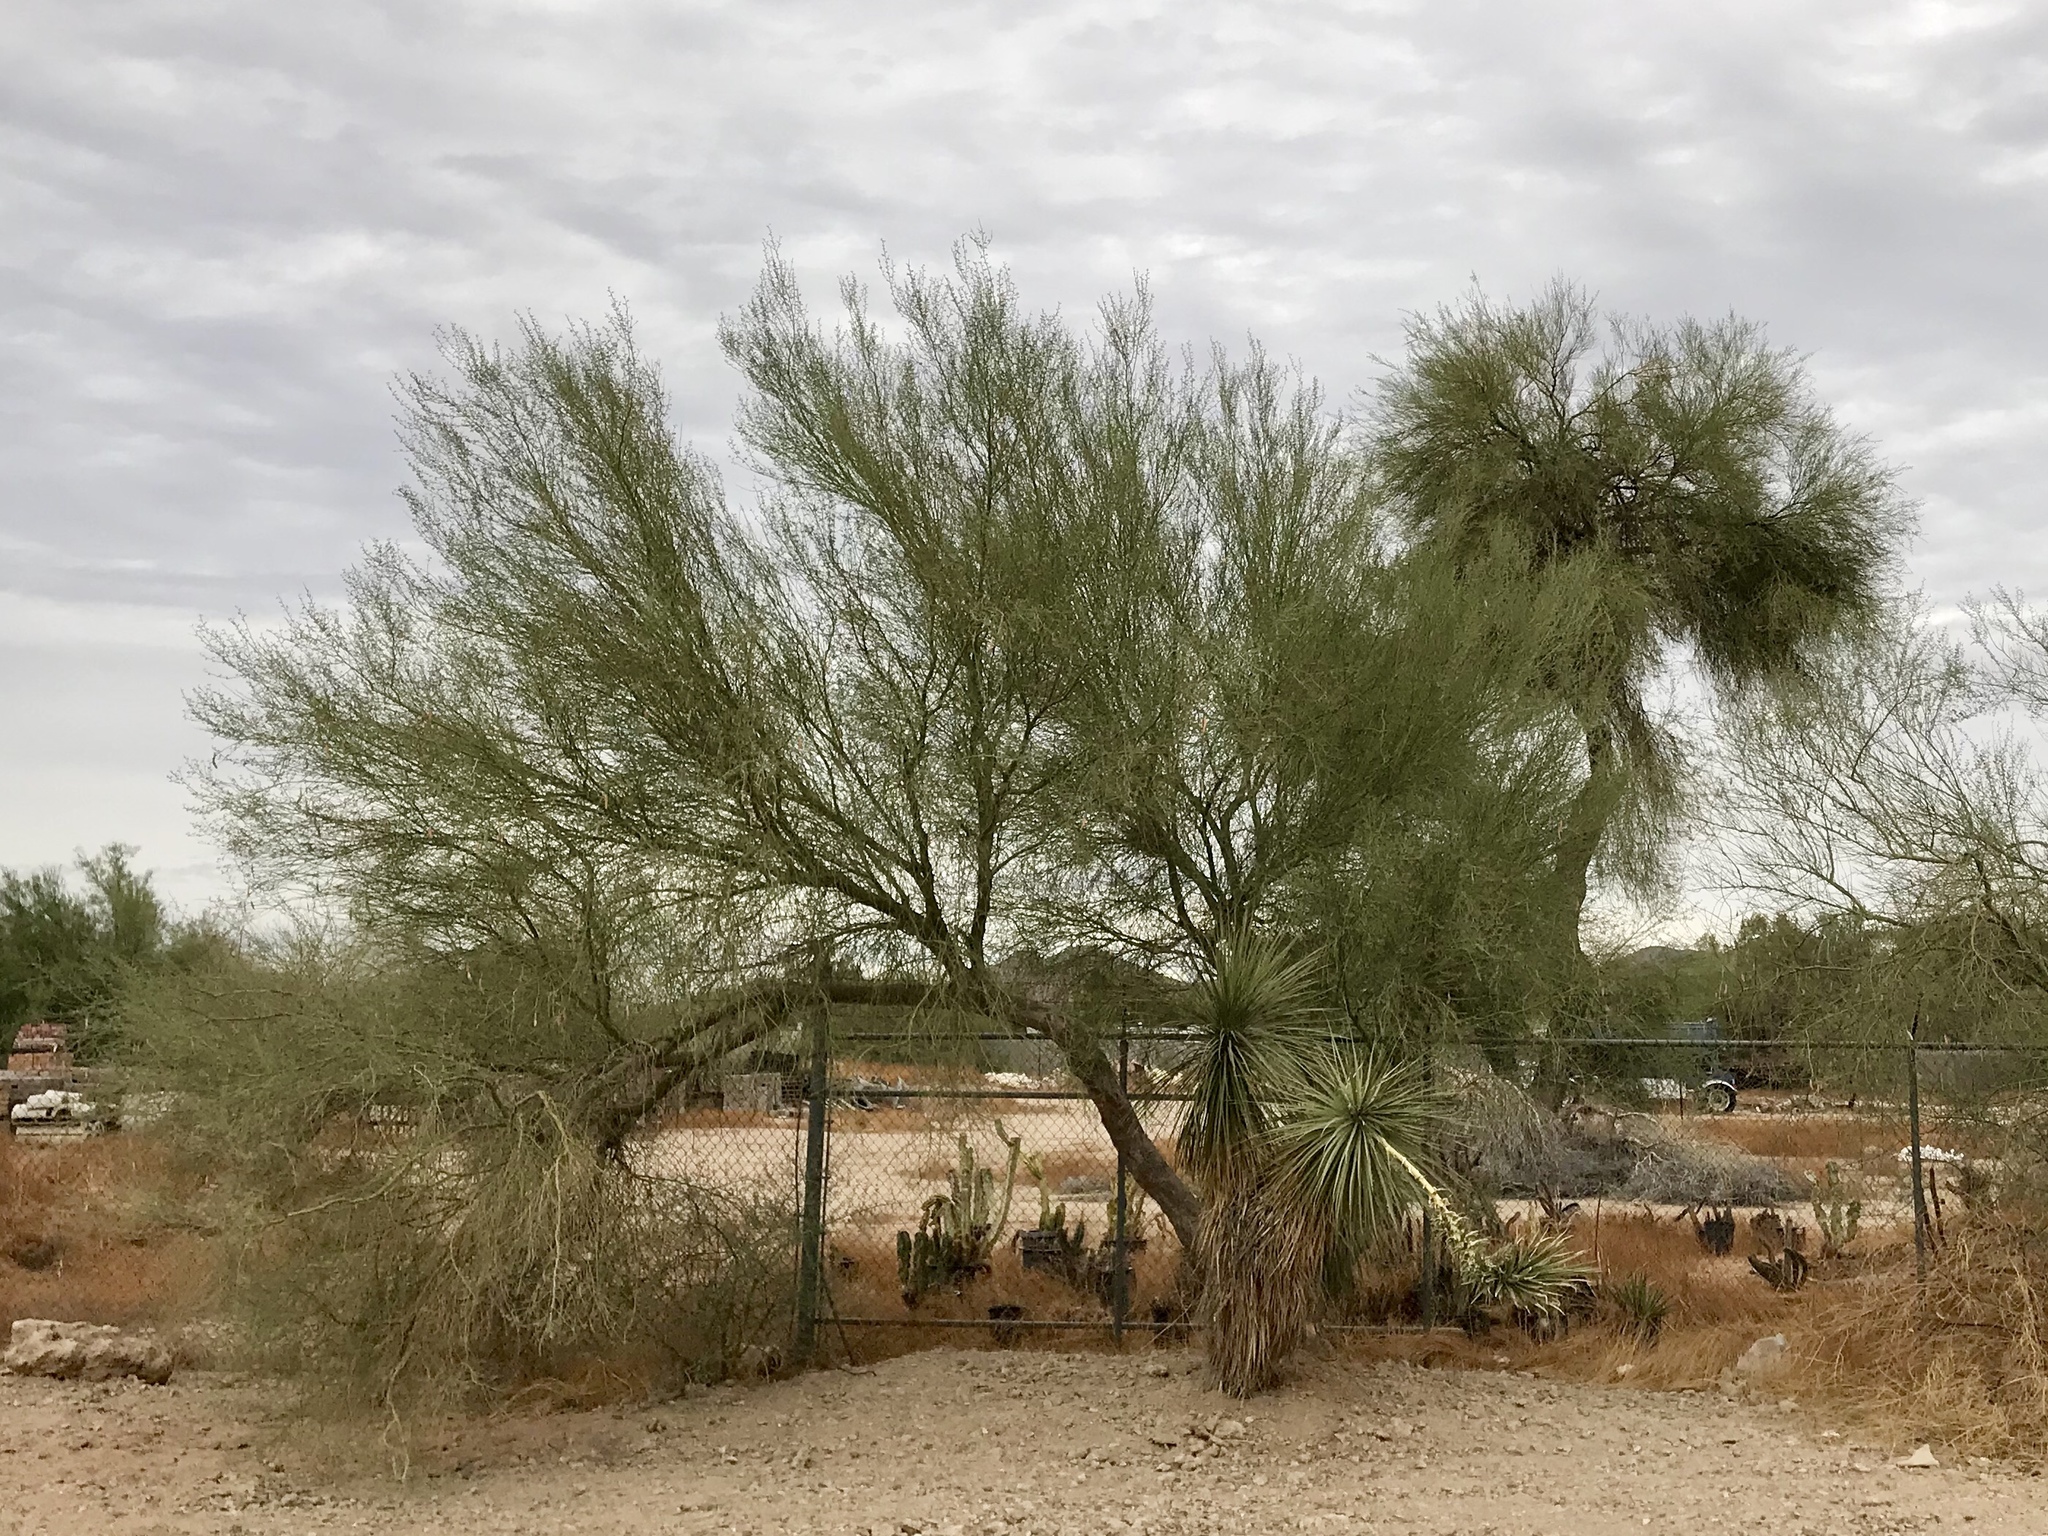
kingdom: Plantae
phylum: Tracheophyta
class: Magnoliopsida
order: Fabales
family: Fabaceae
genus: Parkinsonia
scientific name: Parkinsonia florida
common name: Blue paloverde
